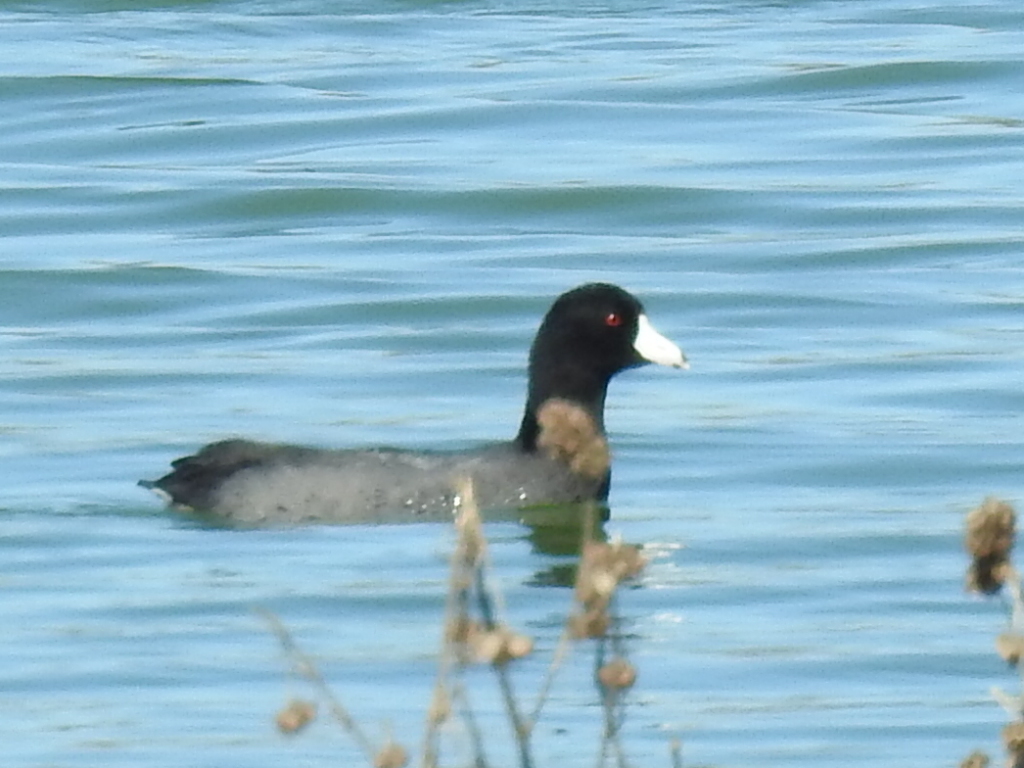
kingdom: Animalia
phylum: Chordata
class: Aves
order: Gruiformes
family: Rallidae
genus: Fulica
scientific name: Fulica americana
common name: American coot
